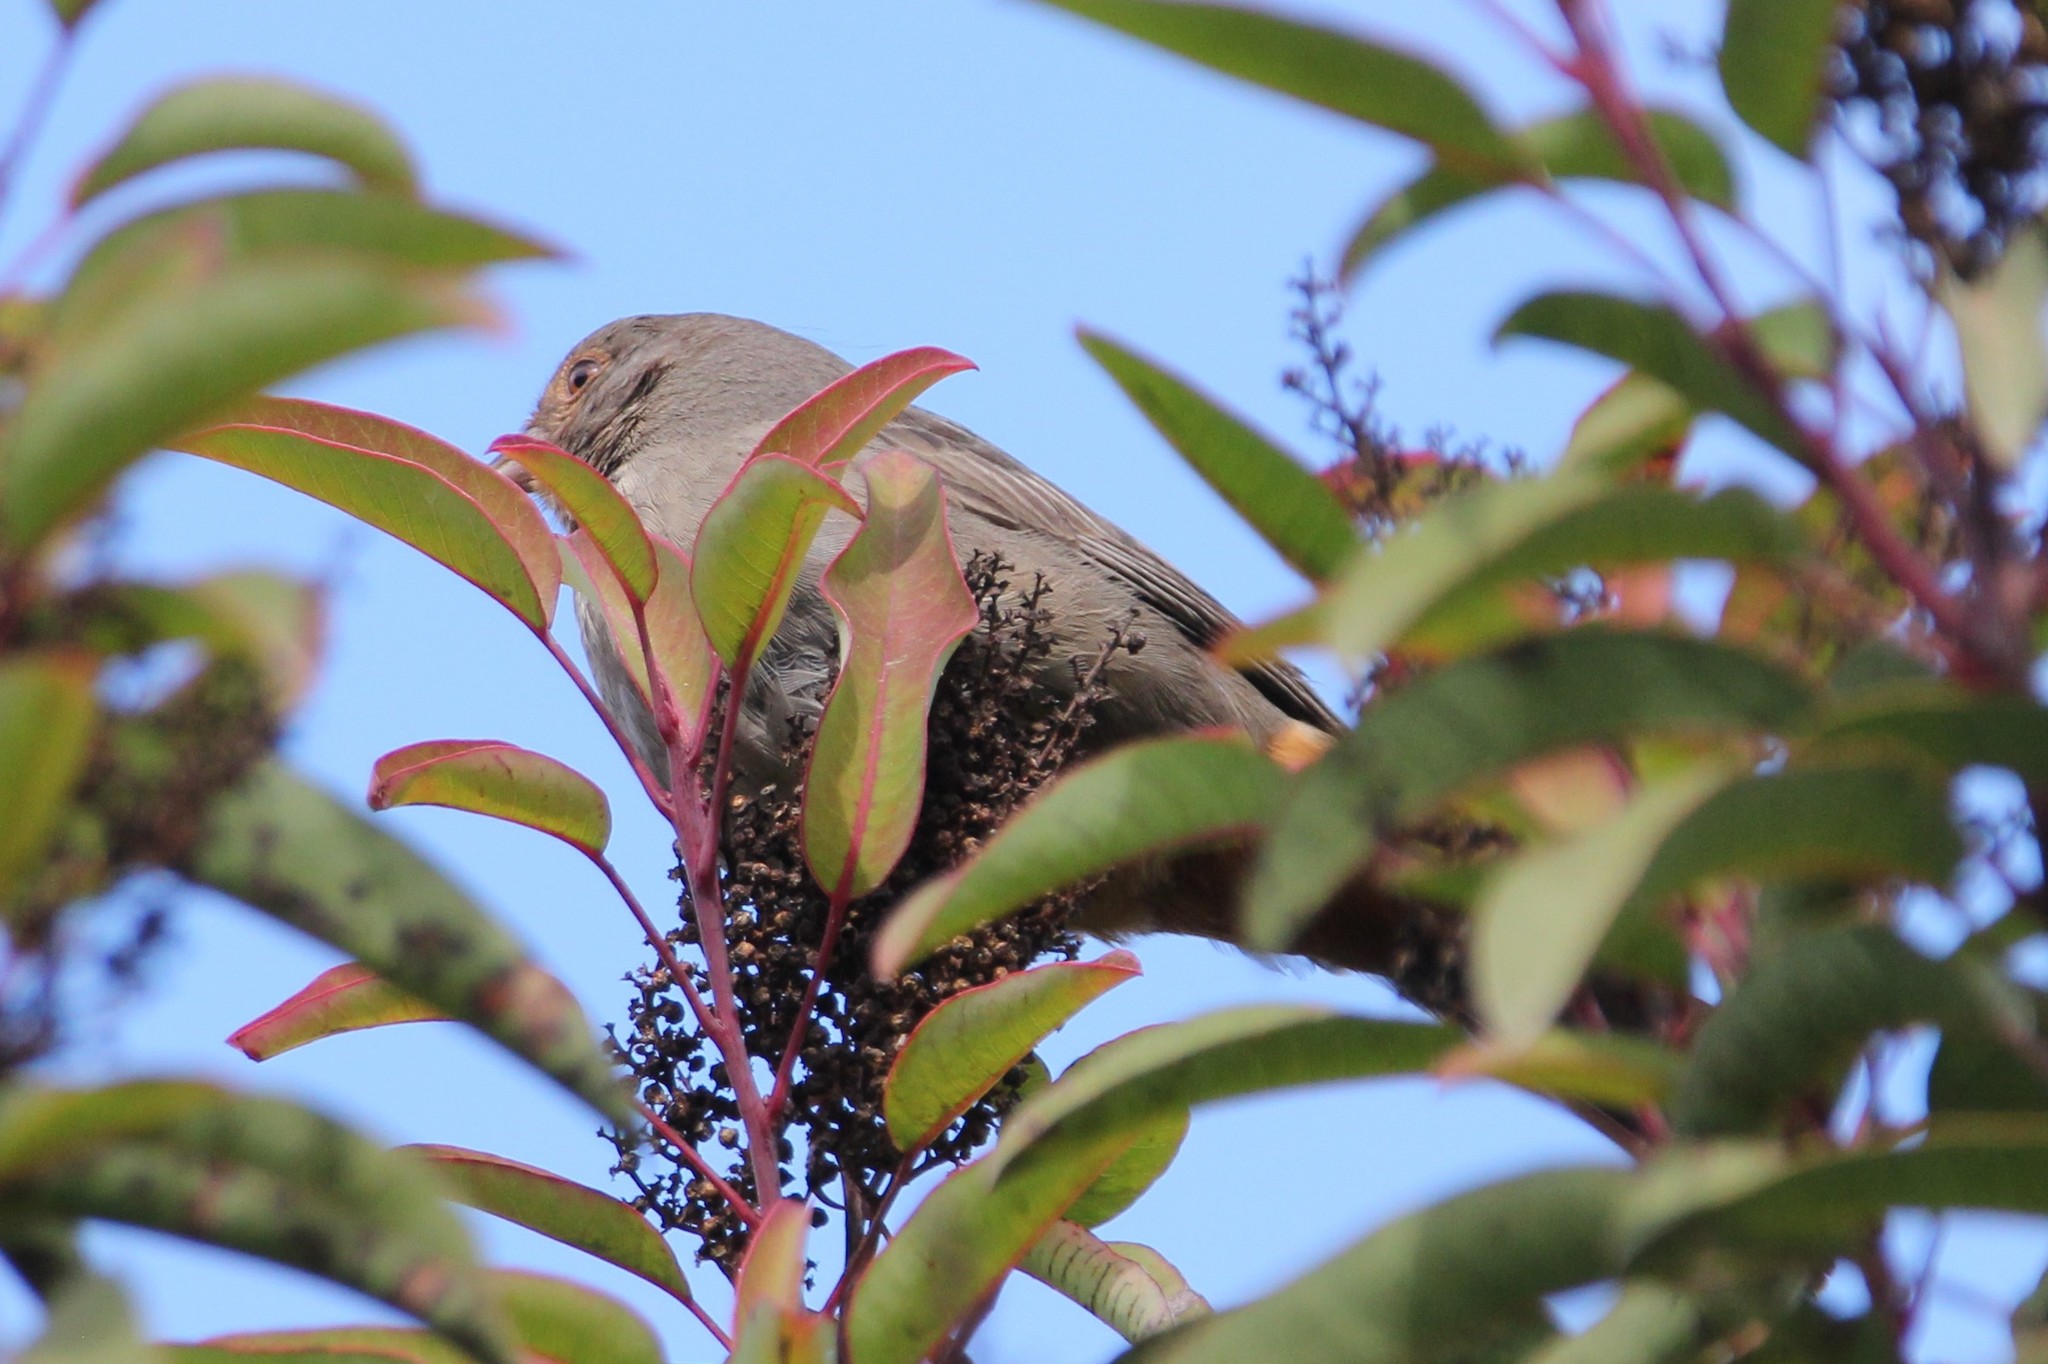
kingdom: Animalia
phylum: Chordata
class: Aves
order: Passeriformes
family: Passerellidae
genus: Melozone
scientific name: Melozone crissalis
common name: California towhee
